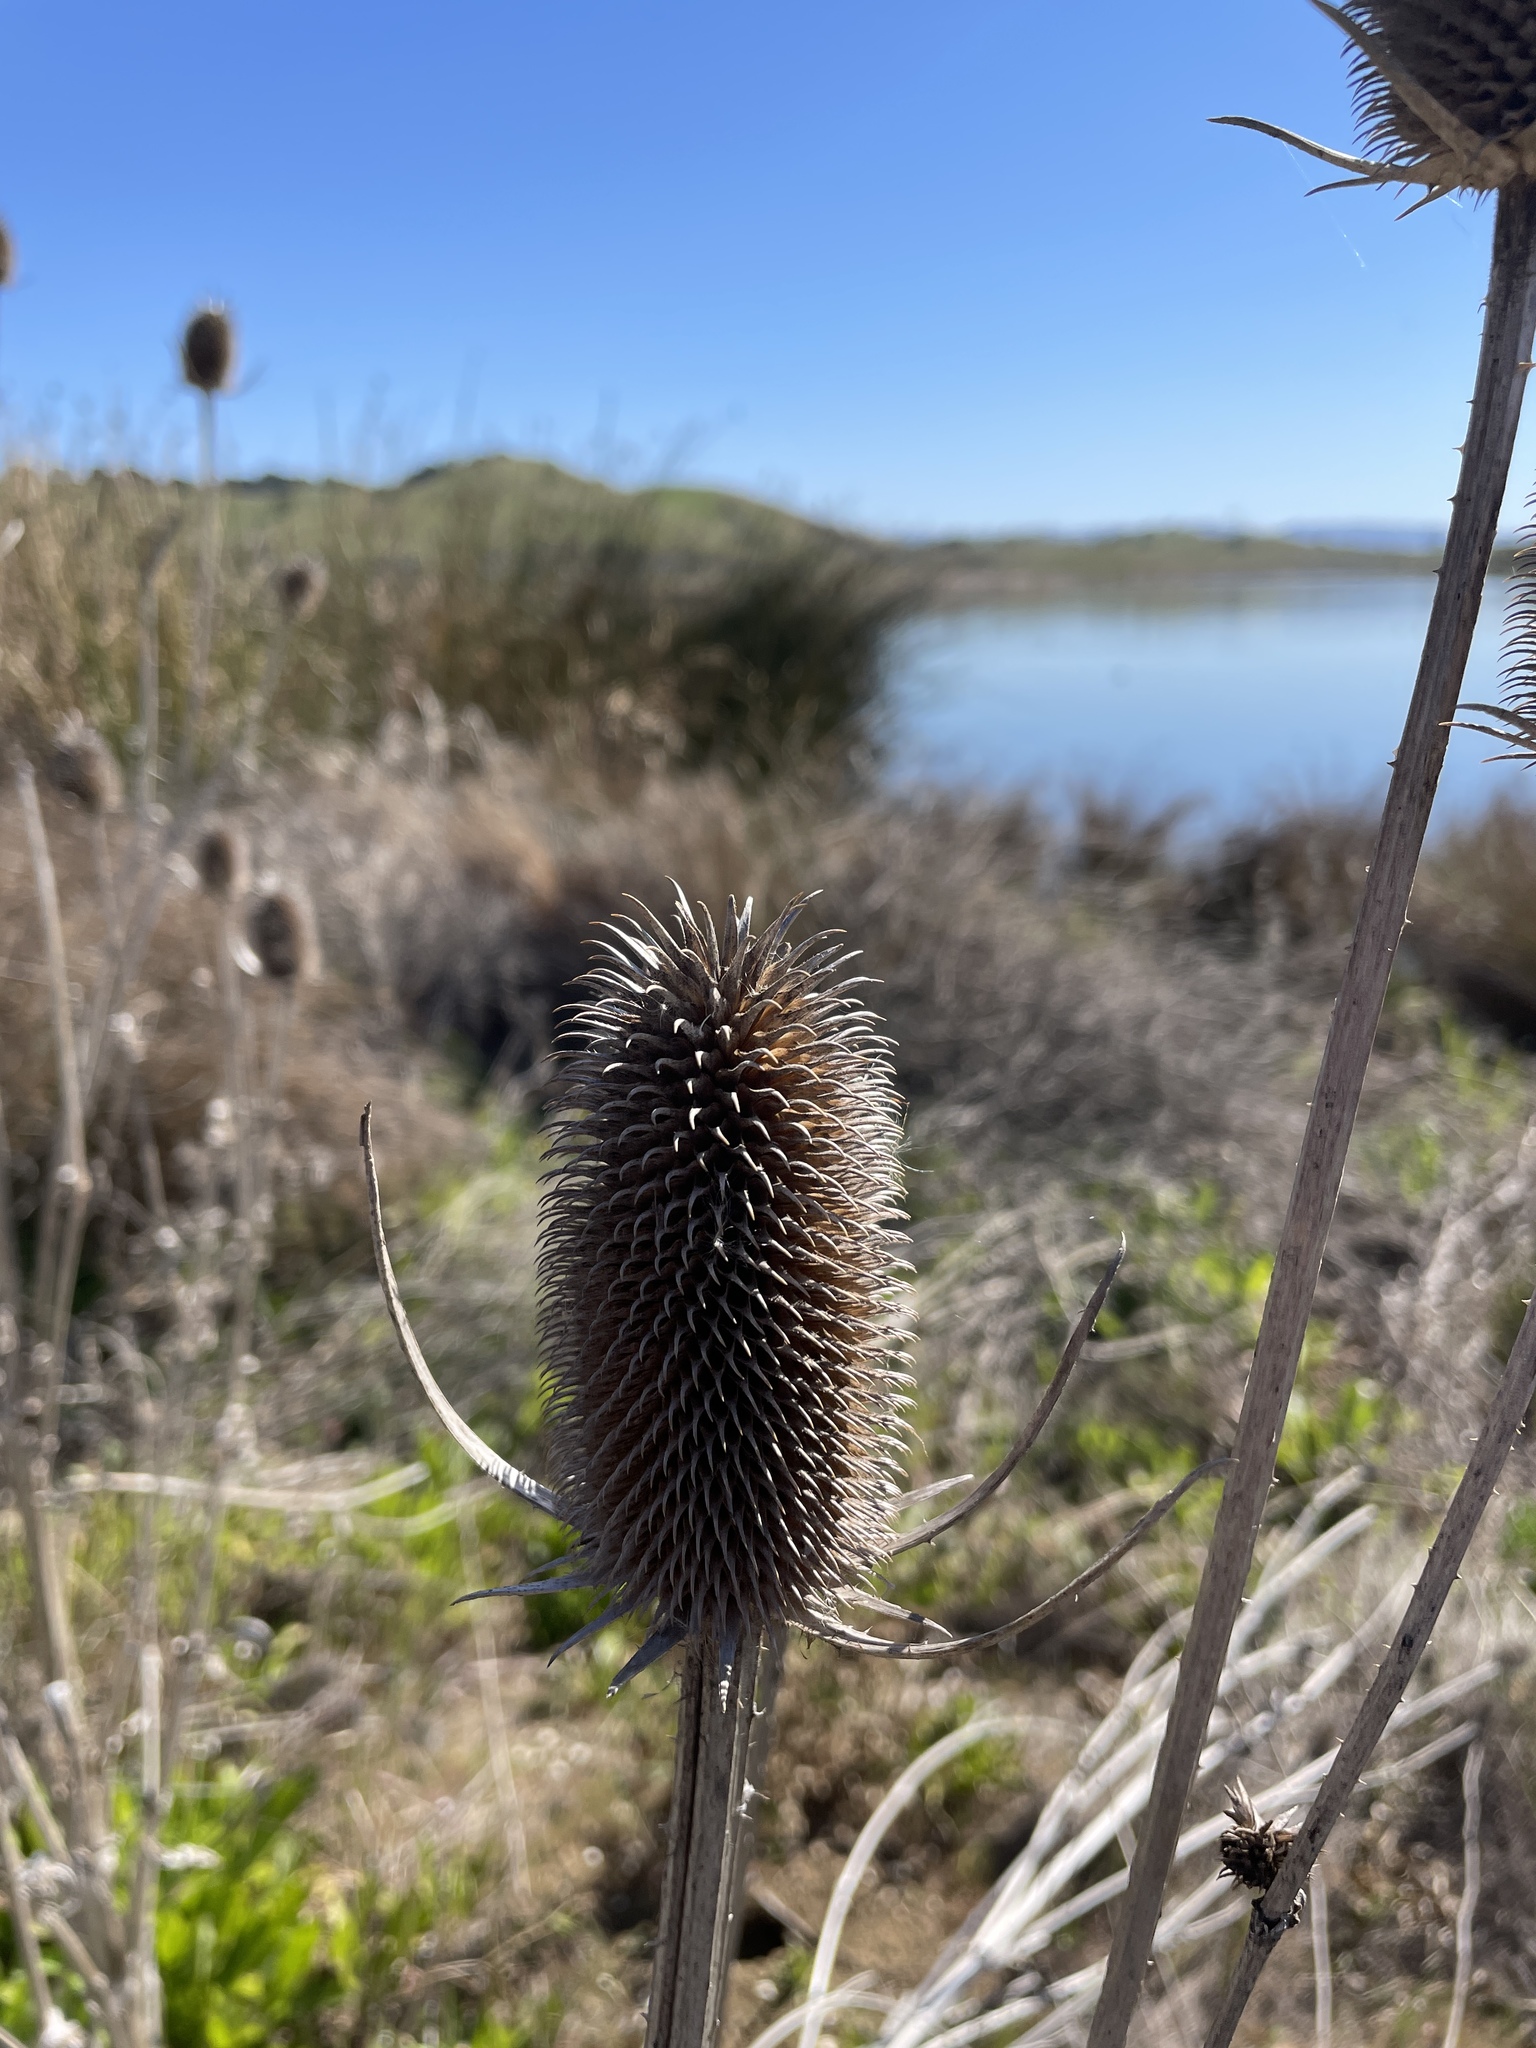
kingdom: Plantae
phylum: Tracheophyta
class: Magnoliopsida
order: Dipsacales
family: Caprifoliaceae
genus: Dipsacus
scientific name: Dipsacus sativus
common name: Fuller's teasel
